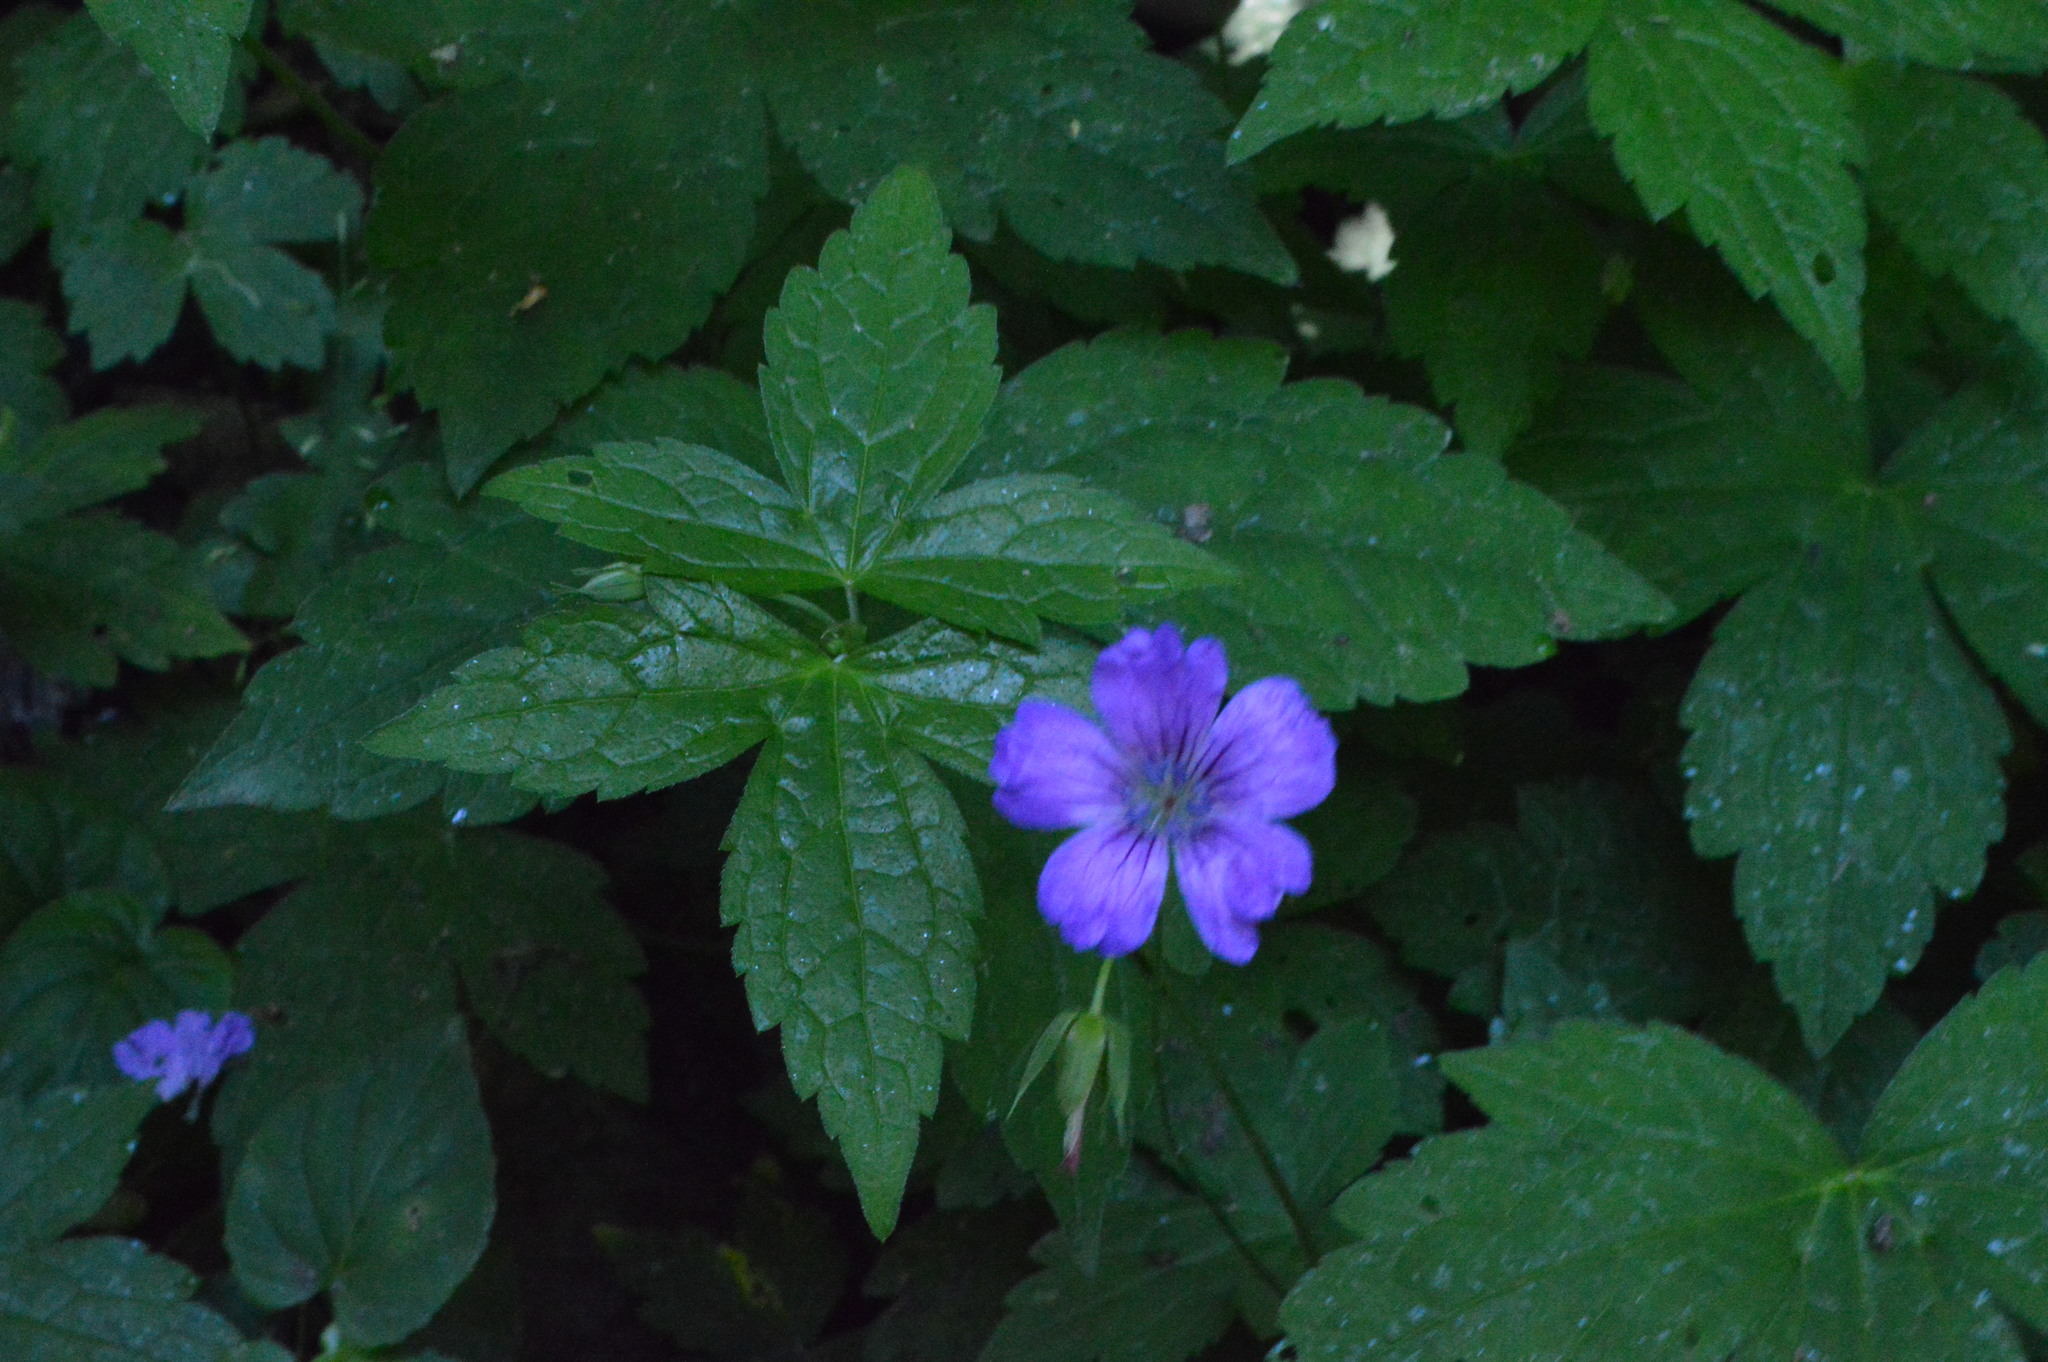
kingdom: Plantae
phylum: Tracheophyta
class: Magnoliopsida
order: Geraniales
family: Geraniaceae
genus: Geranium
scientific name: Geranium nodosum
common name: Knotted crane's-bill
